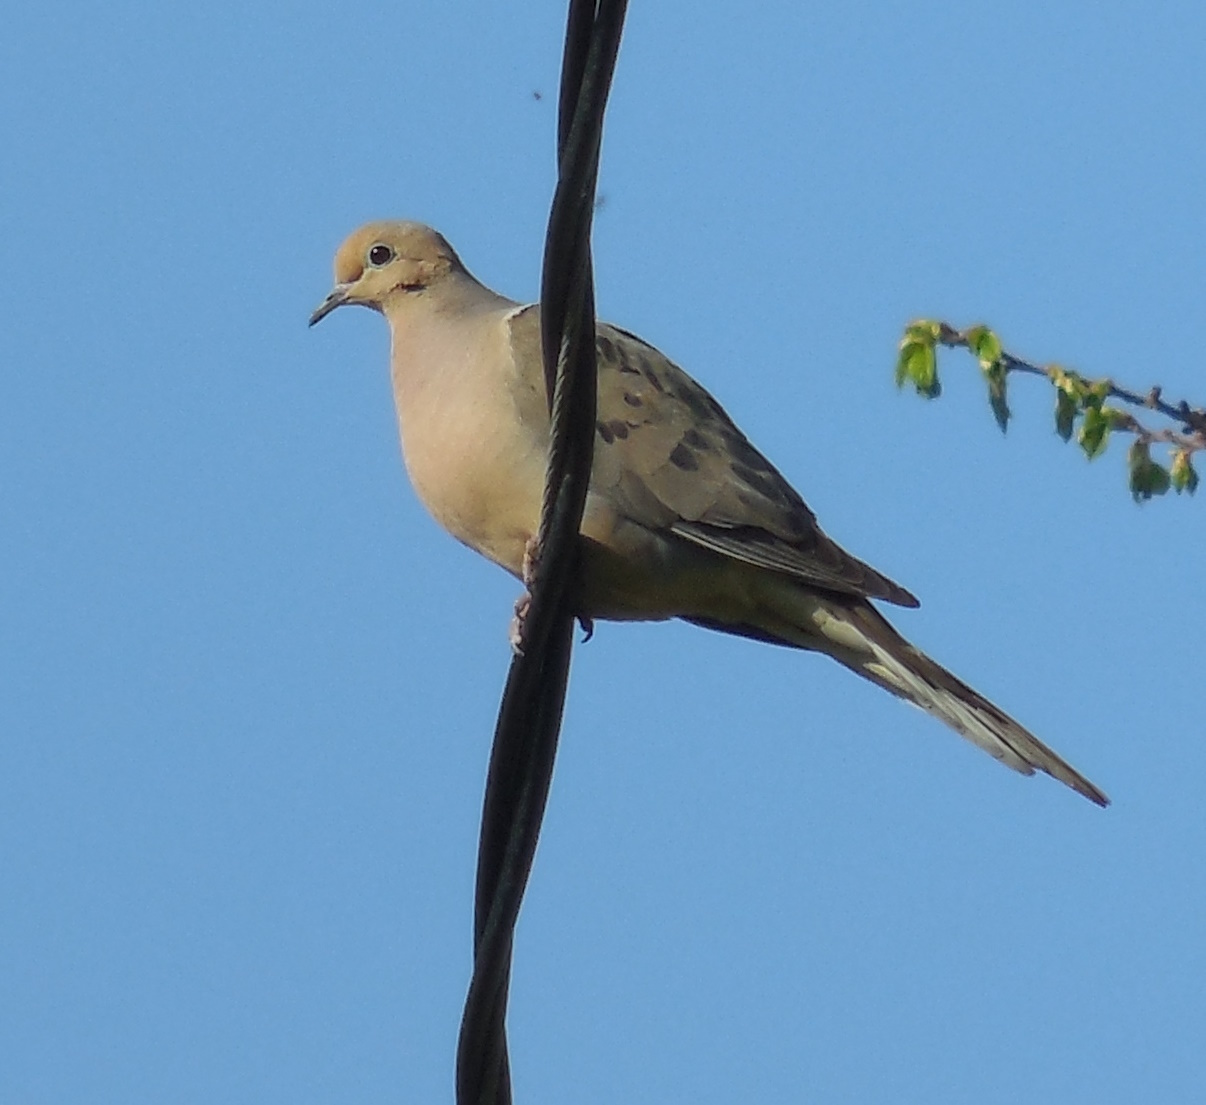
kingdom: Animalia
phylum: Chordata
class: Aves
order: Columbiformes
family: Columbidae
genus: Zenaida
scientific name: Zenaida macroura
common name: Mourning dove
